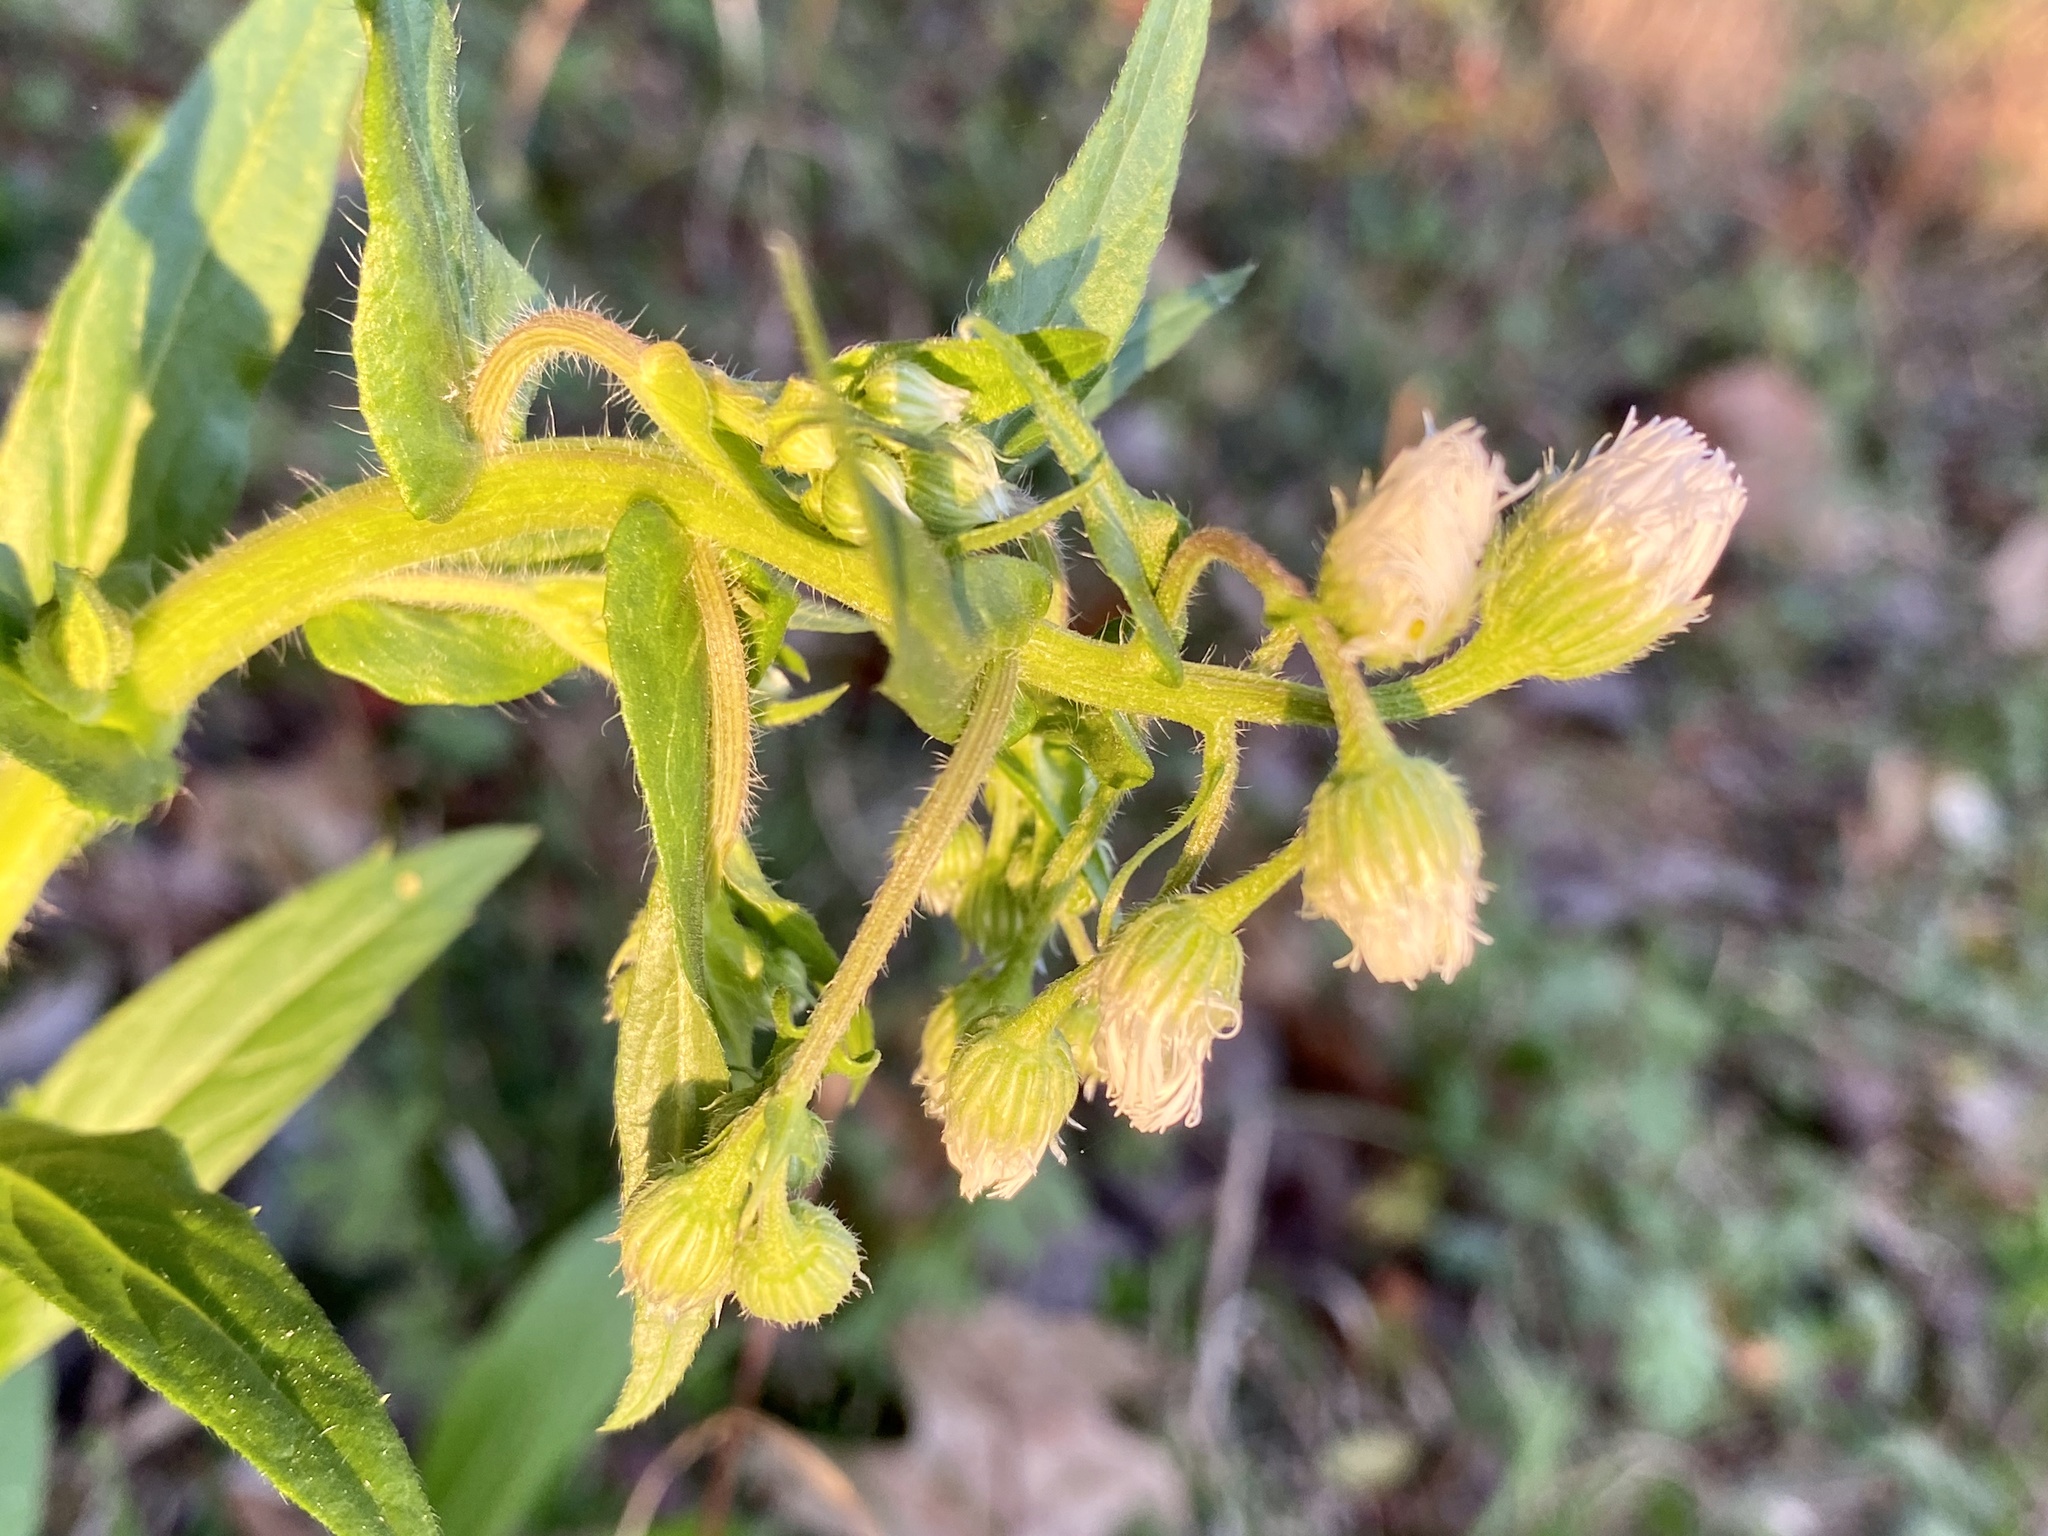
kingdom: Plantae
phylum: Tracheophyta
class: Magnoliopsida
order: Asterales
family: Asteraceae
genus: Erigeron
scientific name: Erigeron philadelphicus
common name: Robin's-plantain
